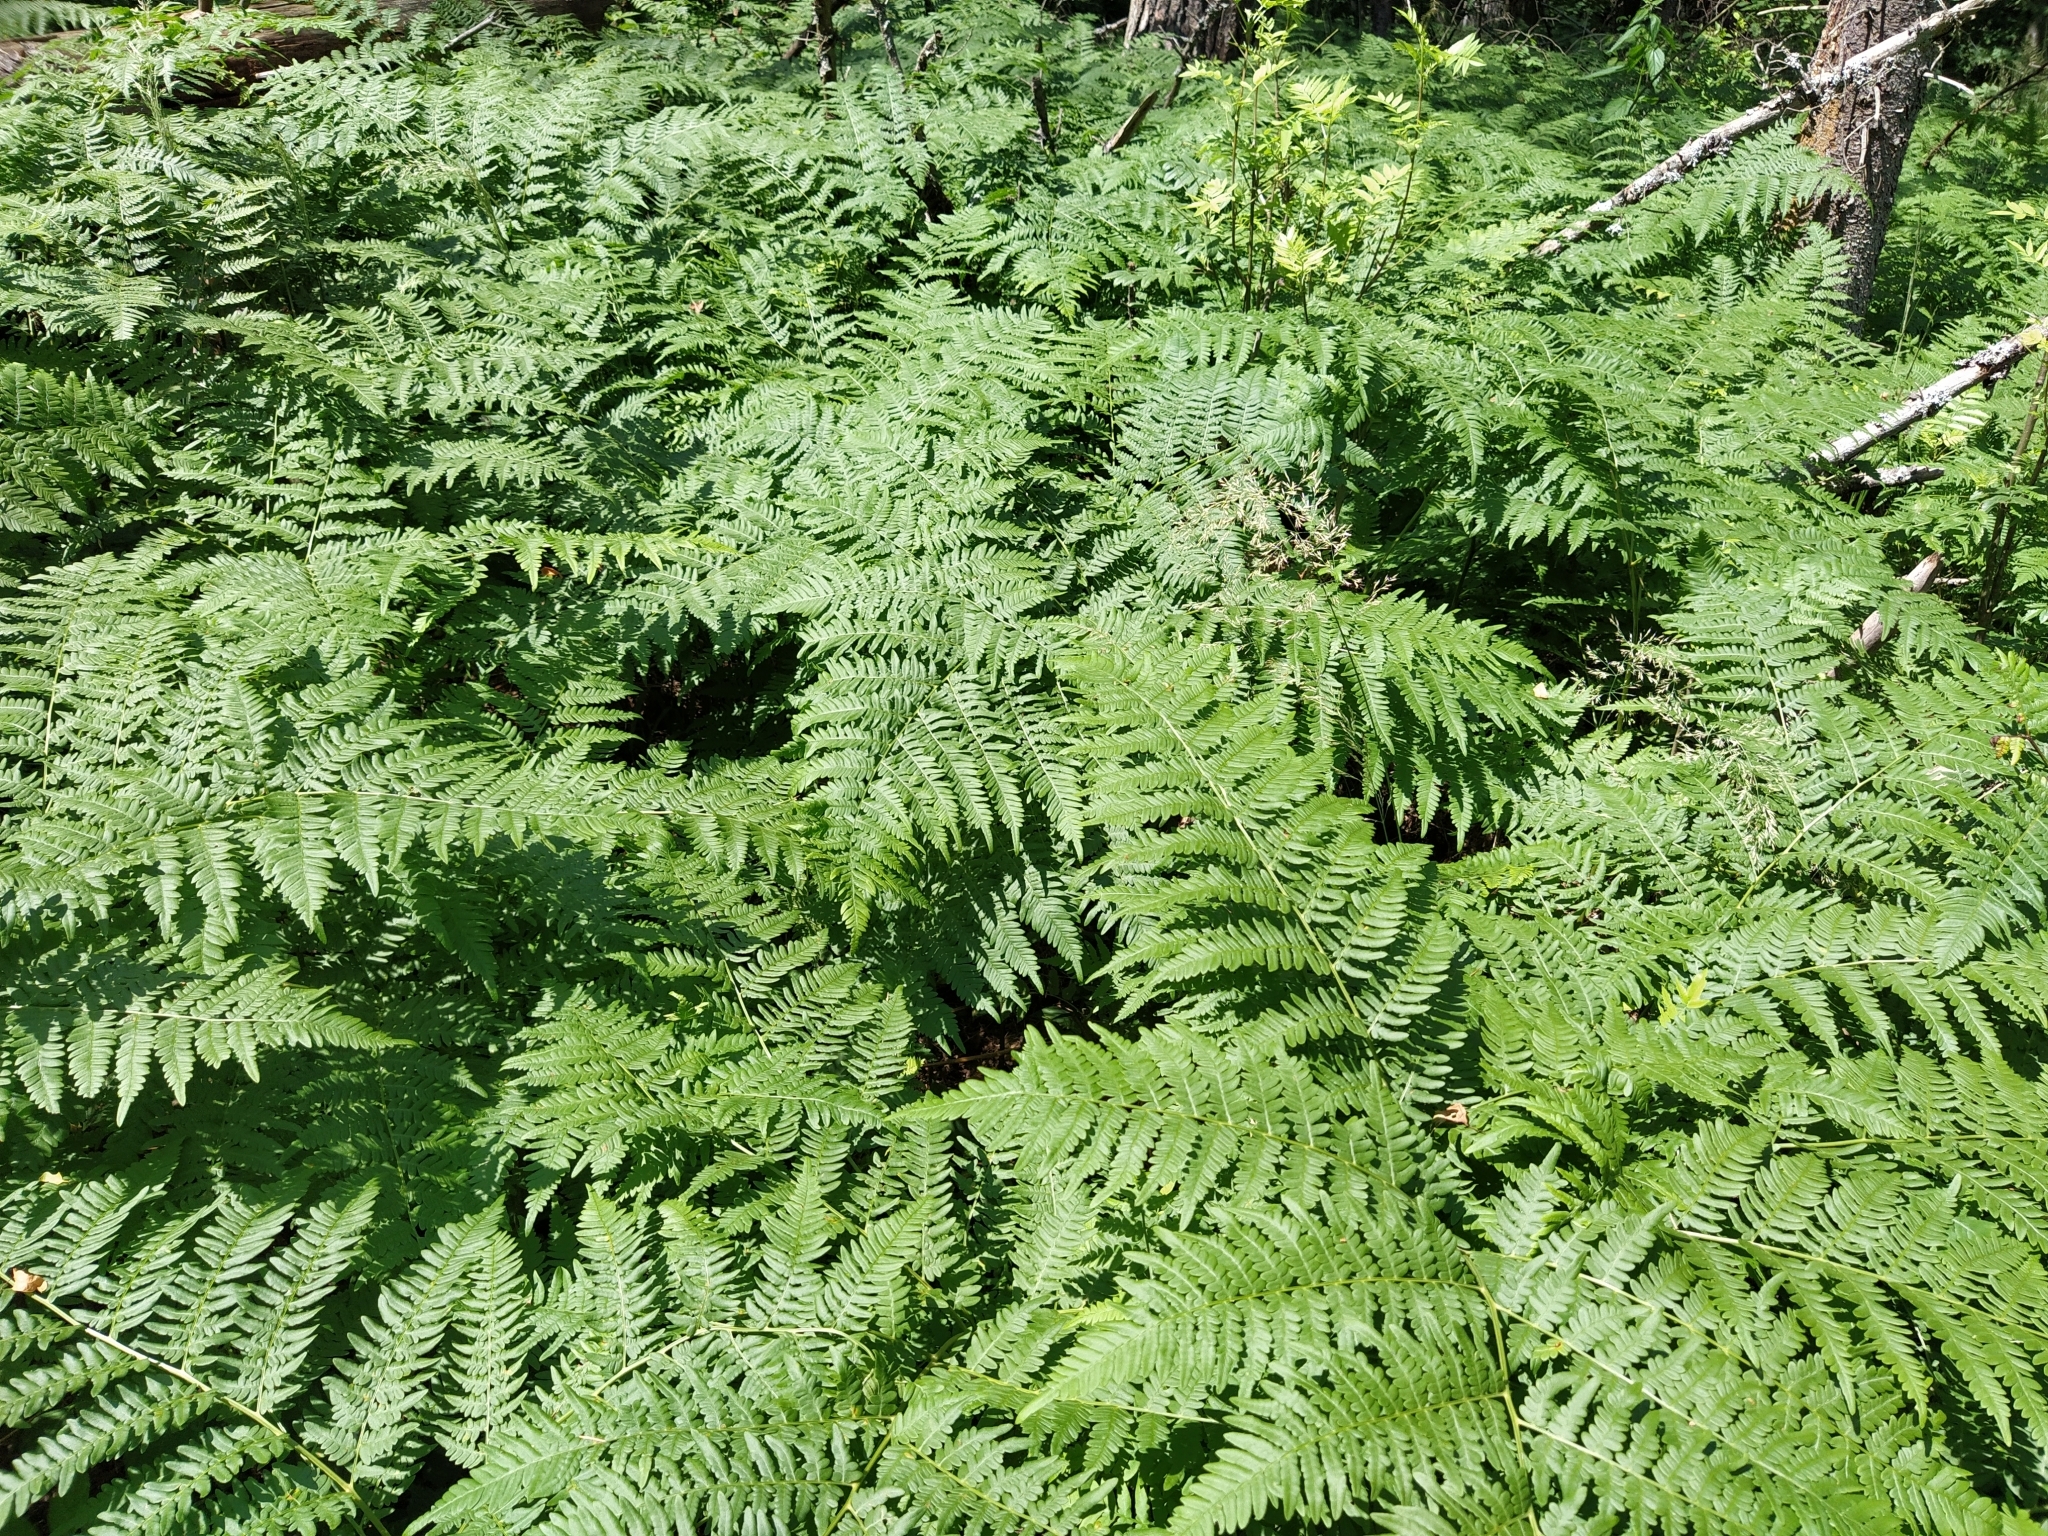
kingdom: Plantae
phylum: Tracheophyta
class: Polypodiopsida
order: Polypodiales
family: Dennstaedtiaceae
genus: Pteridium
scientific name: Pteridium aquilinum
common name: Bracken
